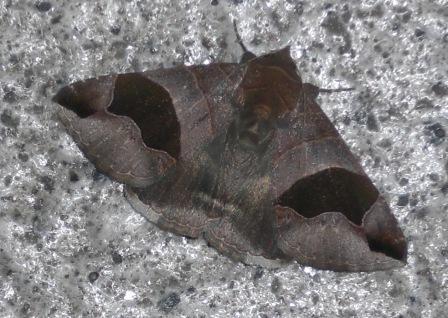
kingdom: Animalia
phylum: Arthropoda
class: Insecta
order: Lepidoptera
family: Erebidae
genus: Bastilla
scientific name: Bastilla solomonensis
